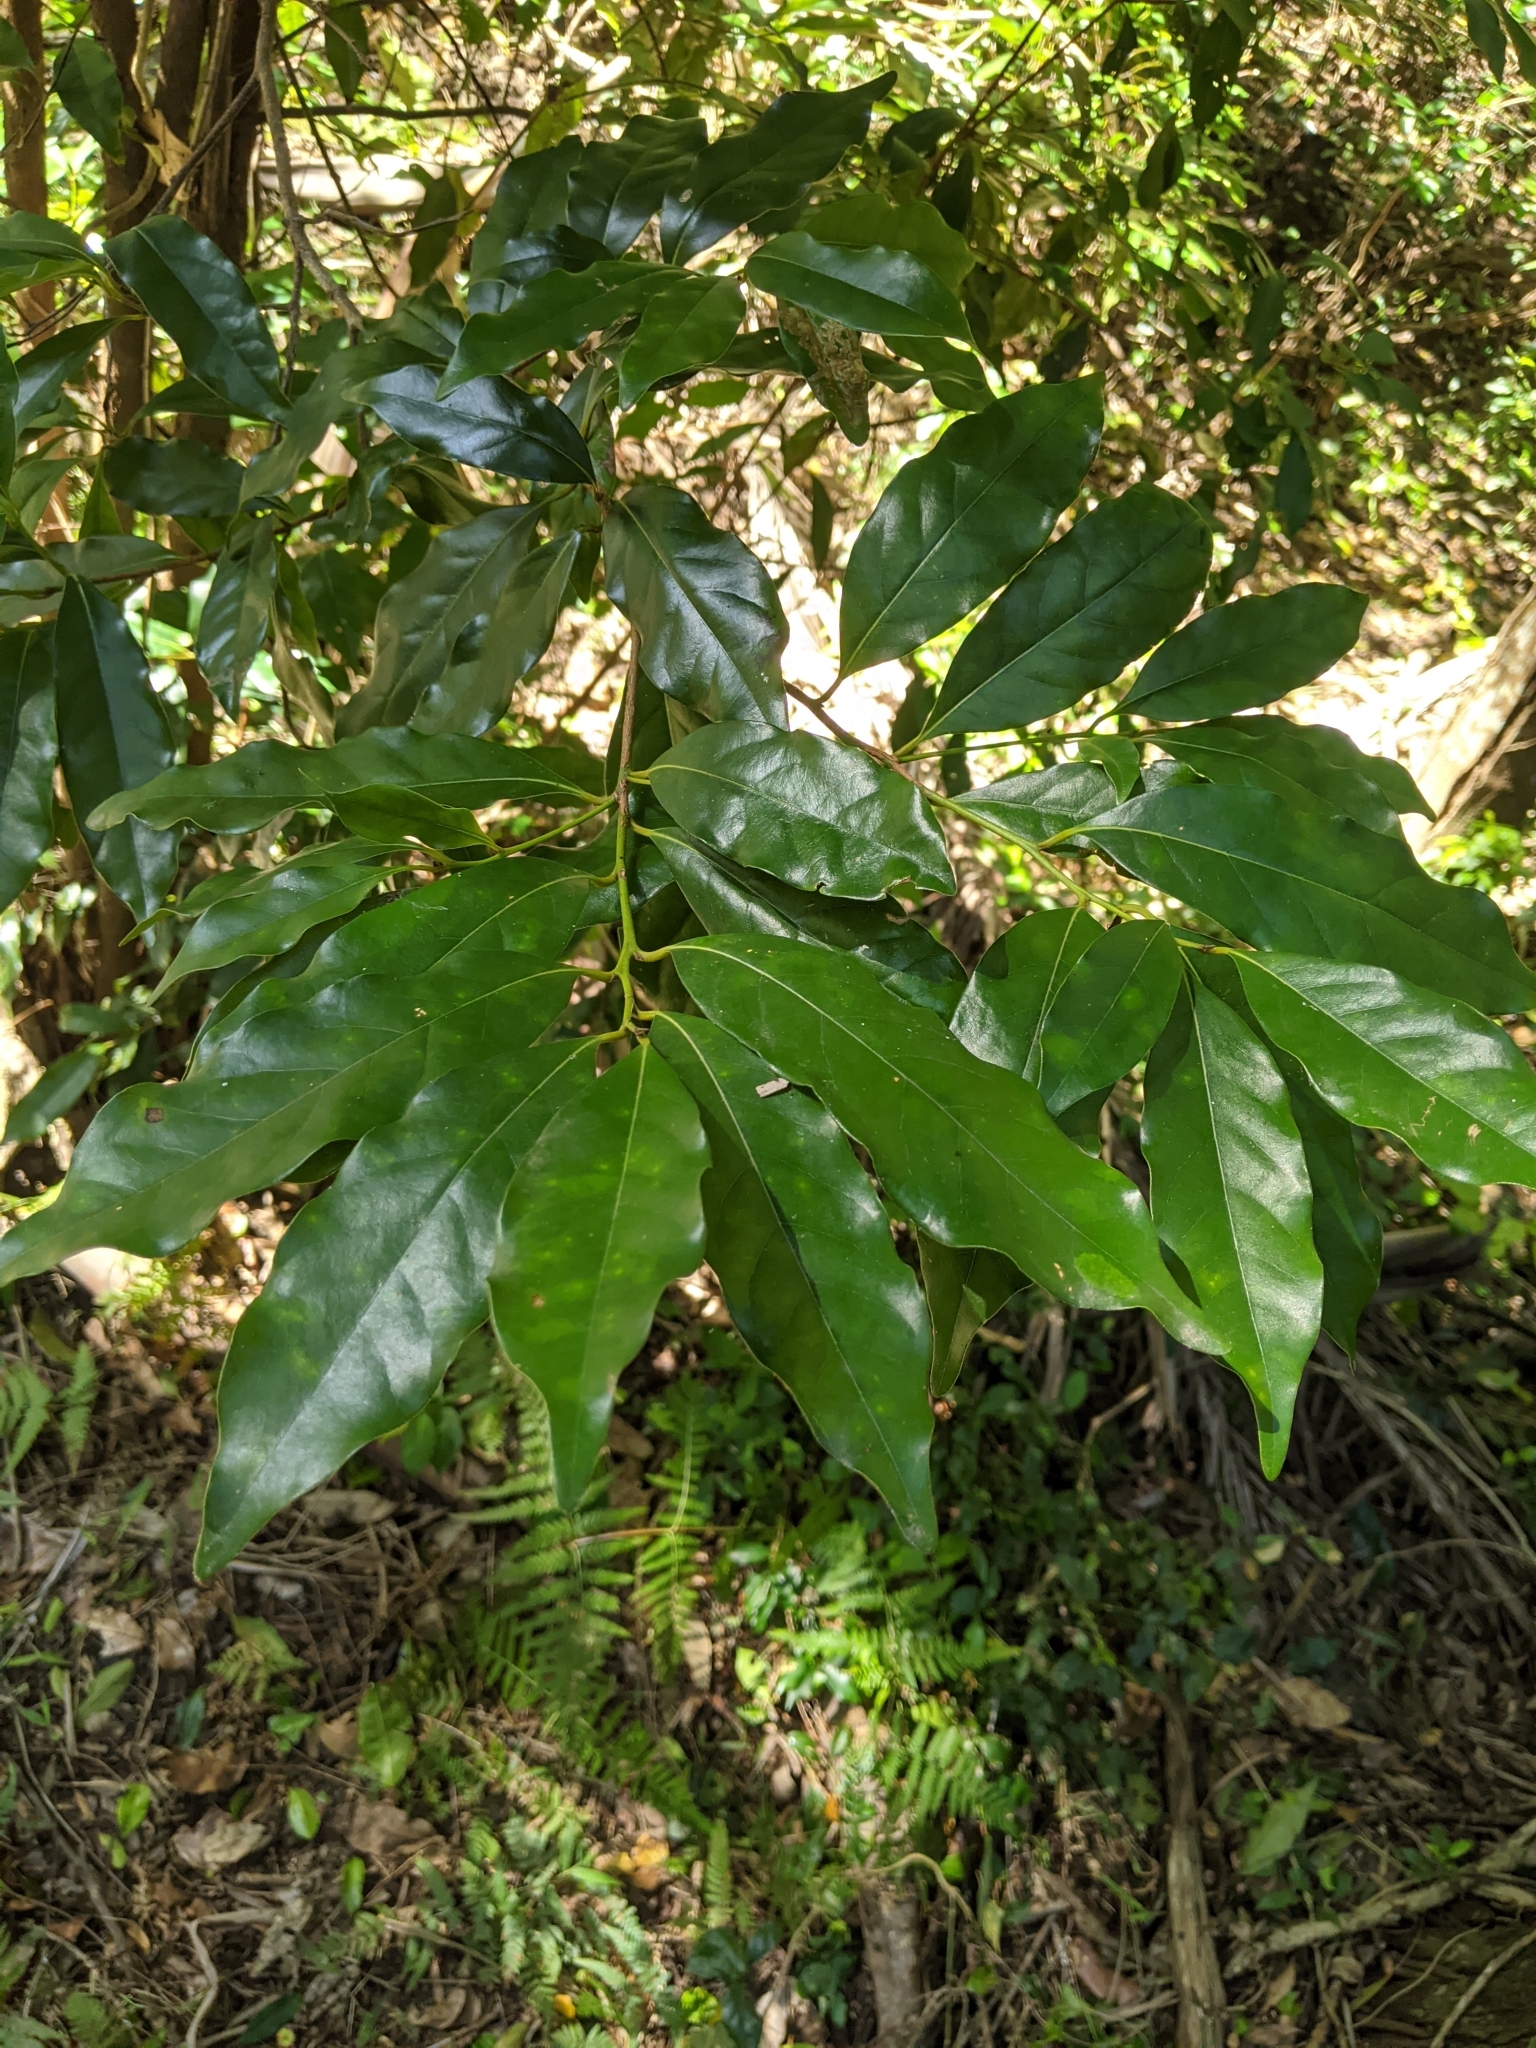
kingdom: Plantae
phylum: Tracheophyta
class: Magnoliopsida
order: Laurales
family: Lauraceae
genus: Cryptocarya
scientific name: Cryptocarya macdonaldii
